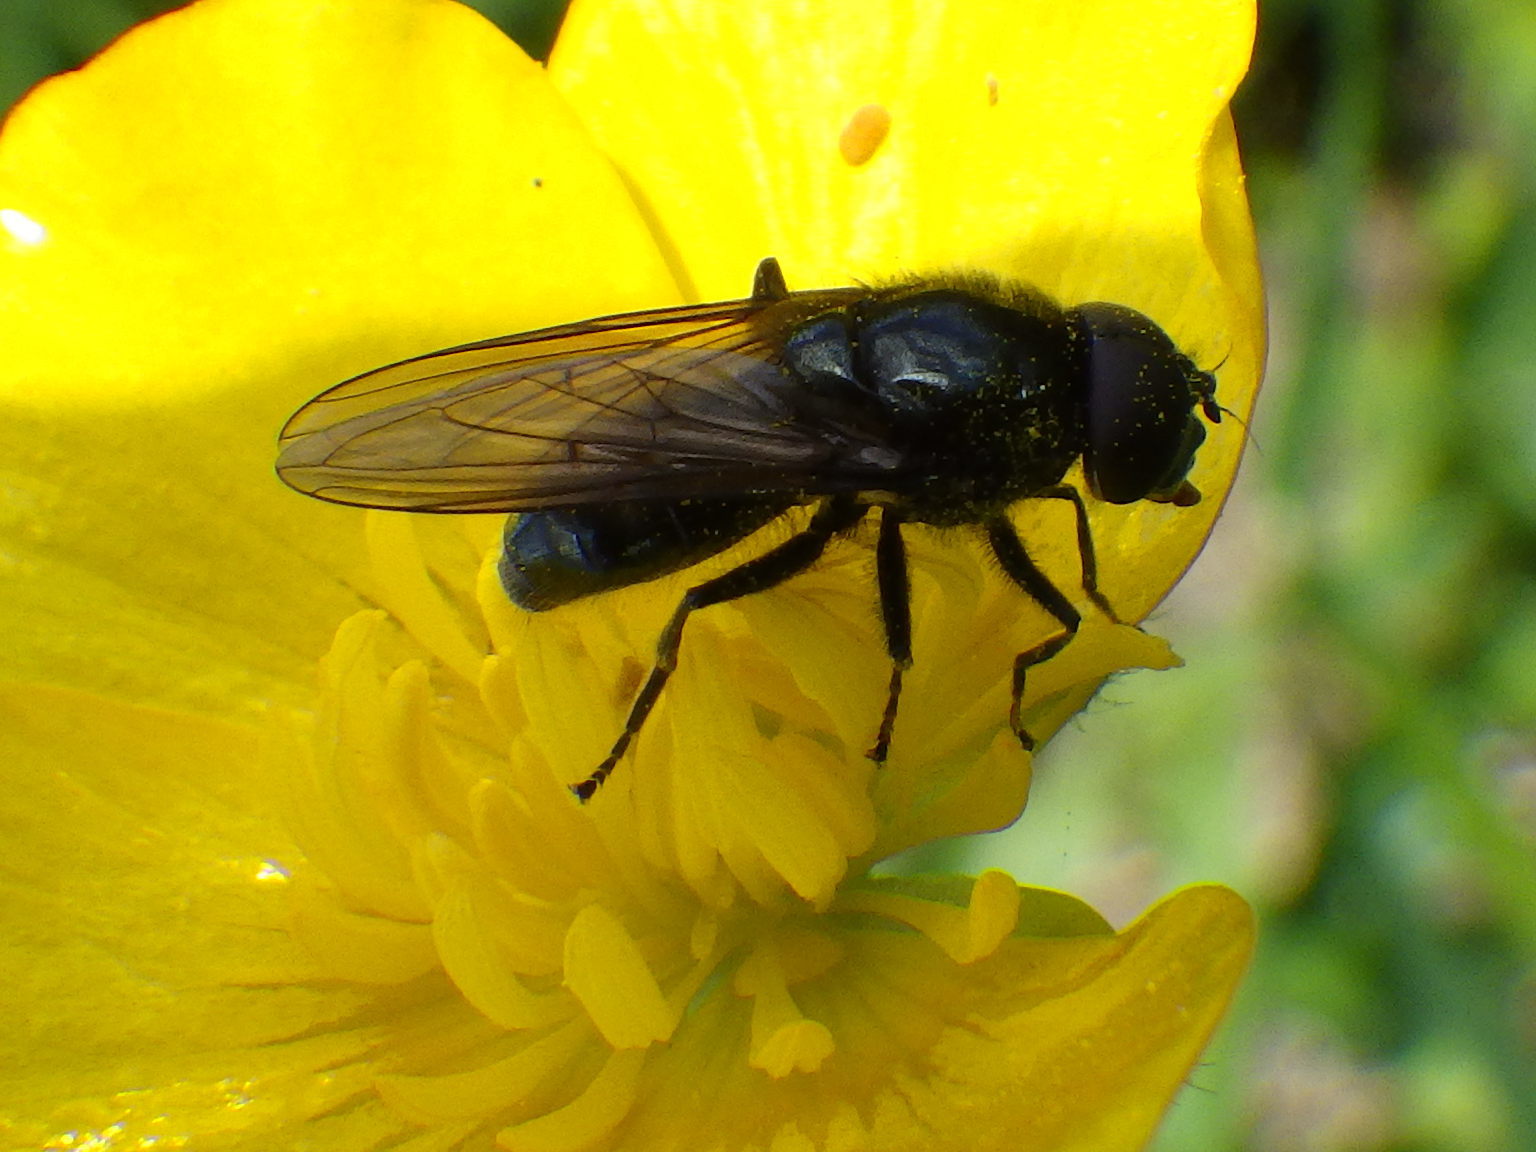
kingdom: Animalia
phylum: Arthropoda
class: Insecta
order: Diptera
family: Syrphidae
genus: Cheilosia
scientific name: Cheilosia albitarsis
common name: Buttercup blacklet
